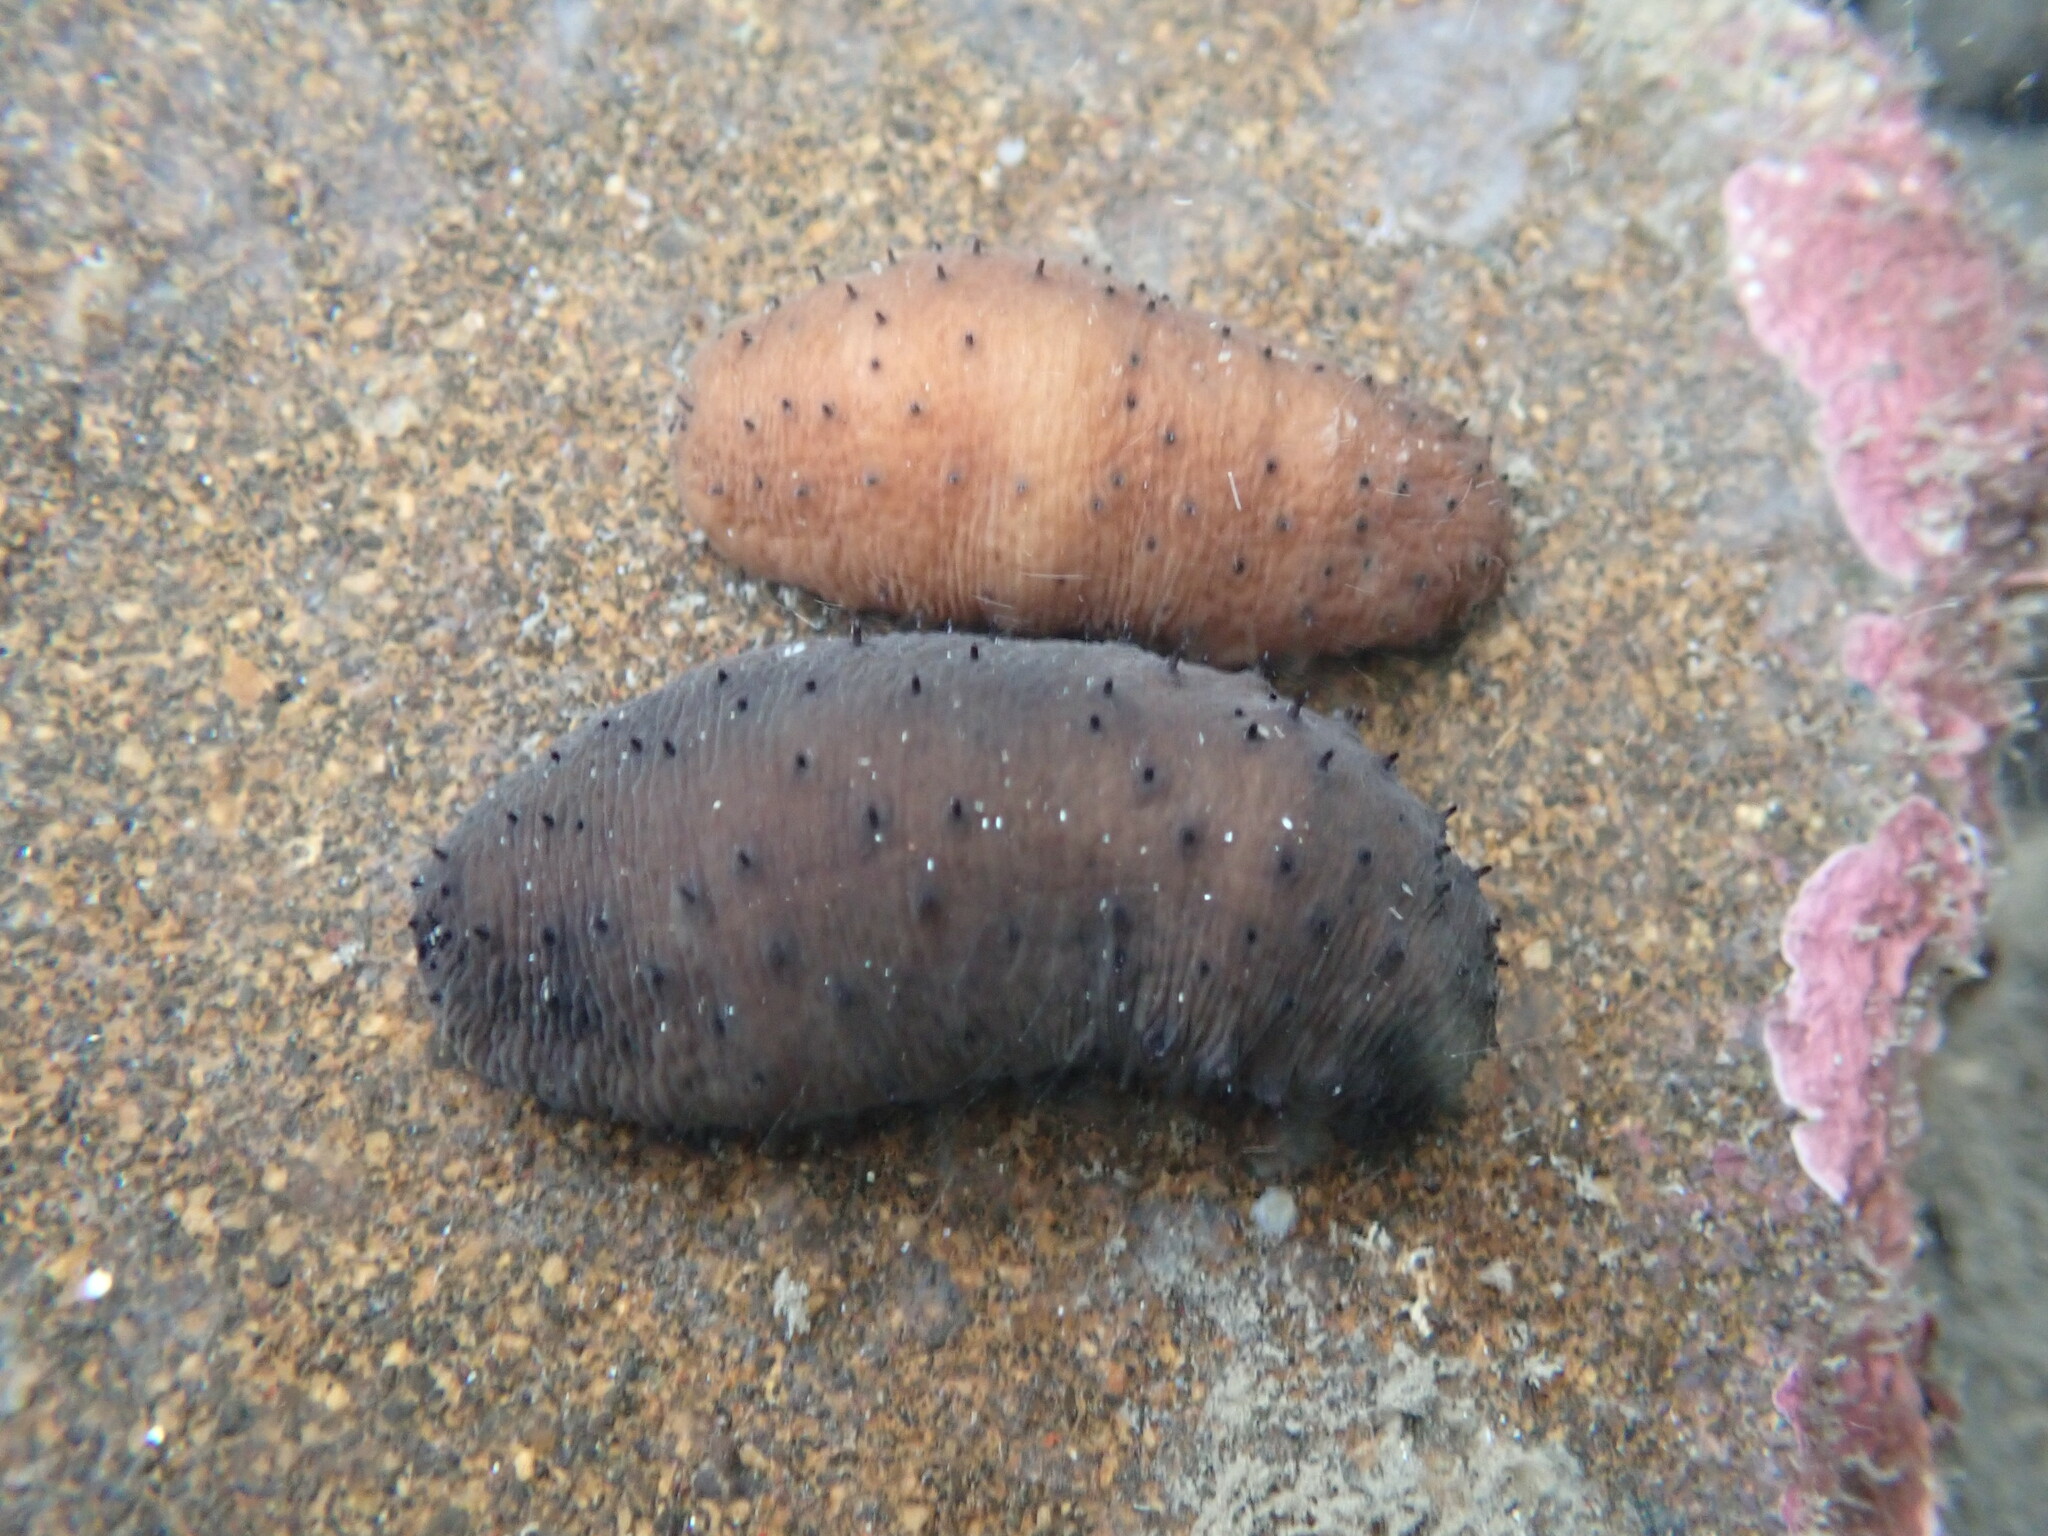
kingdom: Animalia
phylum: Echinodermata
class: Holothuroidea
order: Holothuriida
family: Holothuriidae
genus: Holothuria
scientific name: Holothuria difficilis
